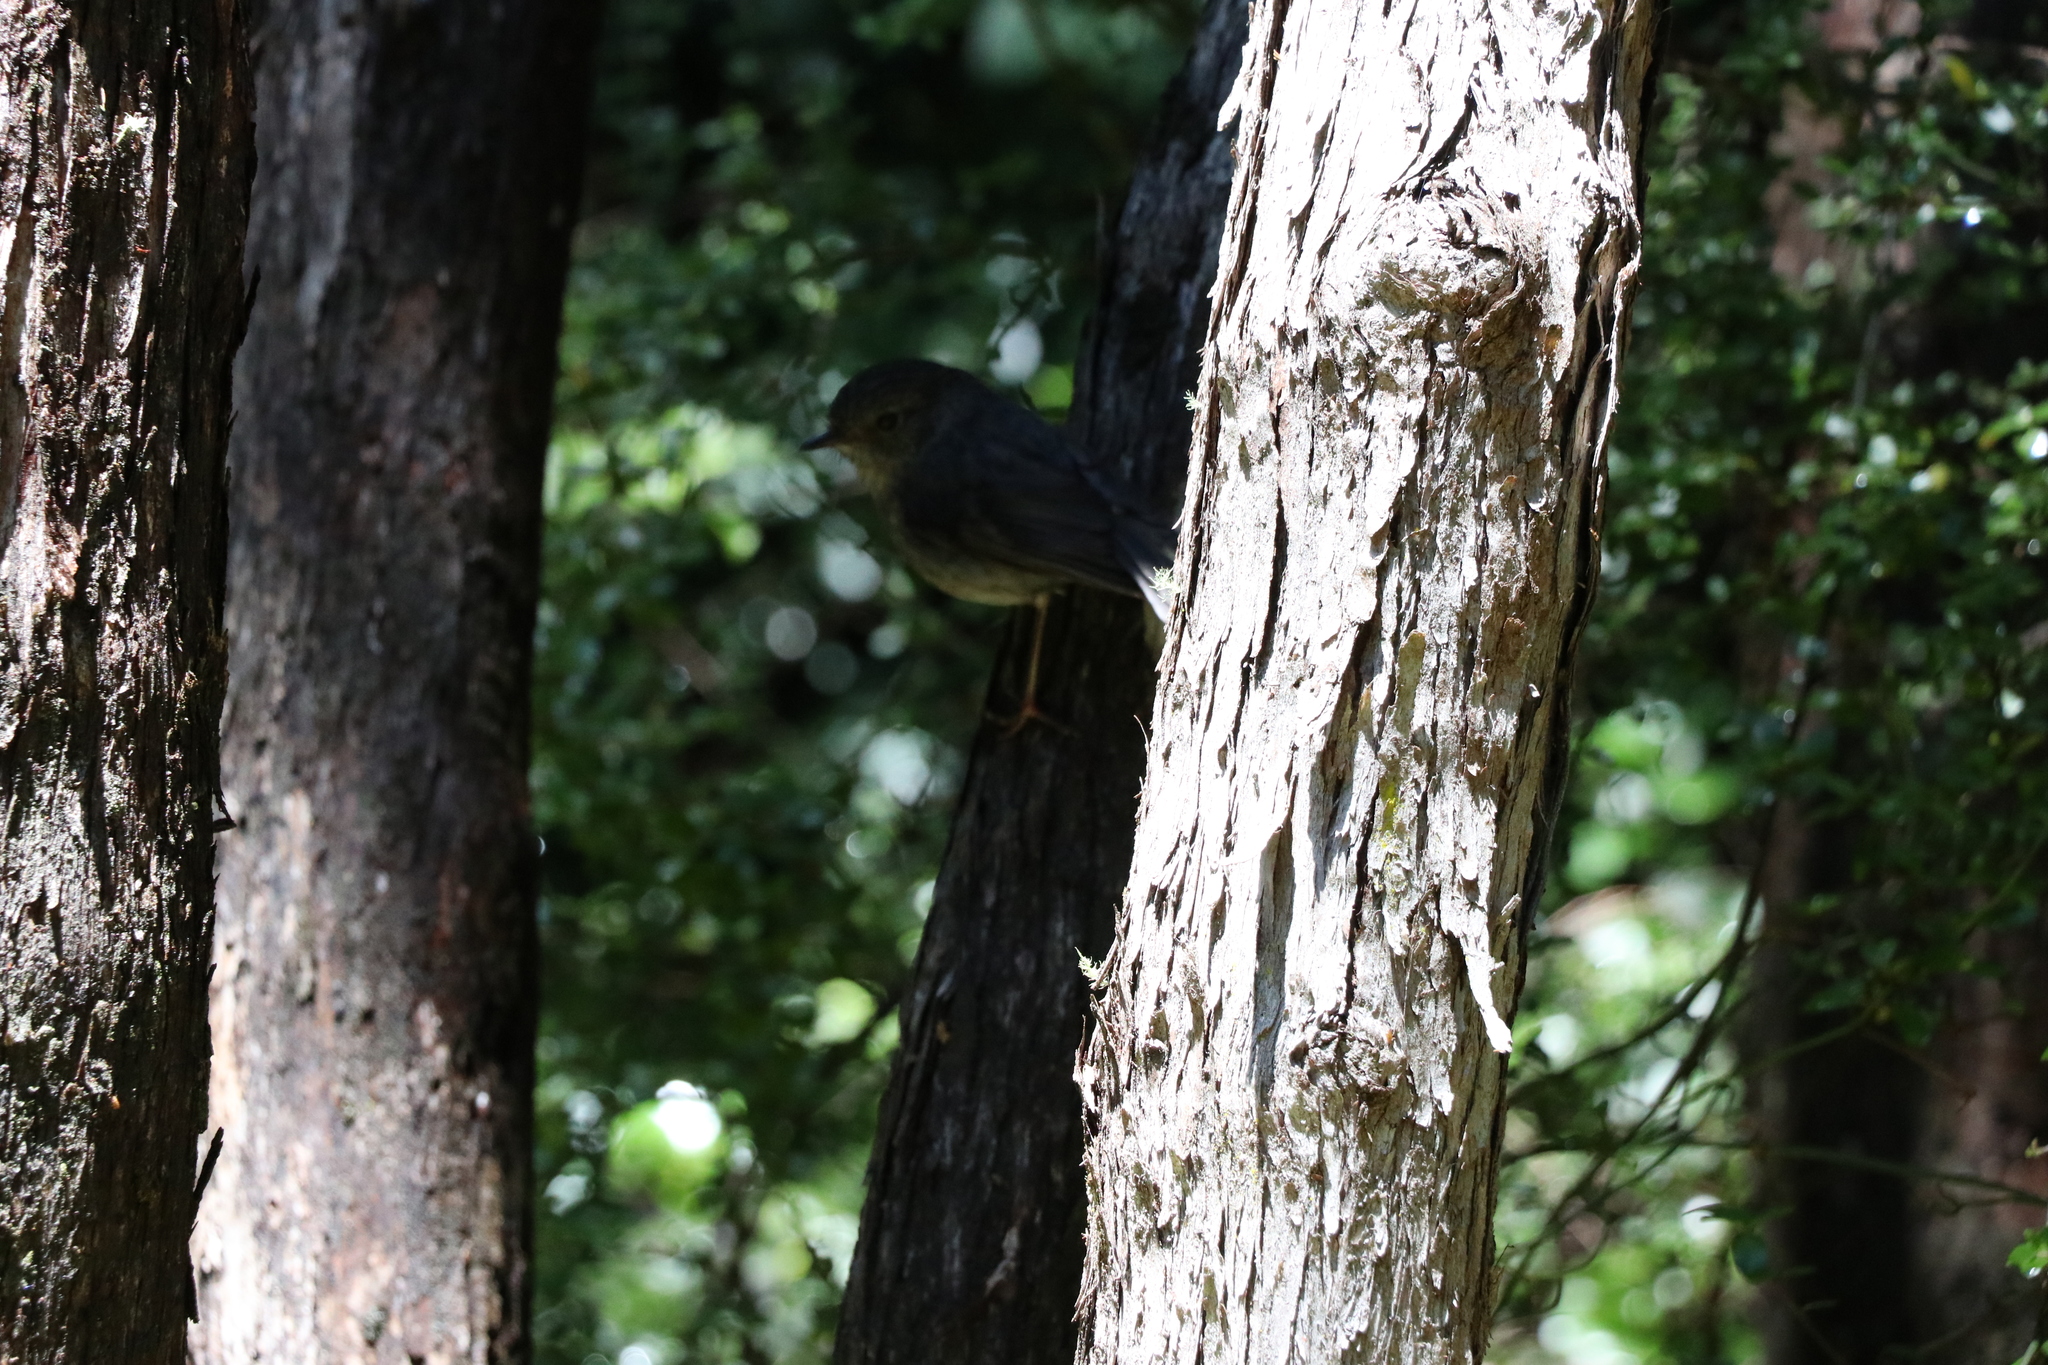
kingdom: Animalia
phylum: Chordata
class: Aves
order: Passeriformes
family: Petroicidae
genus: Petroica
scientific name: Petroica australis
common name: New zealand robin
